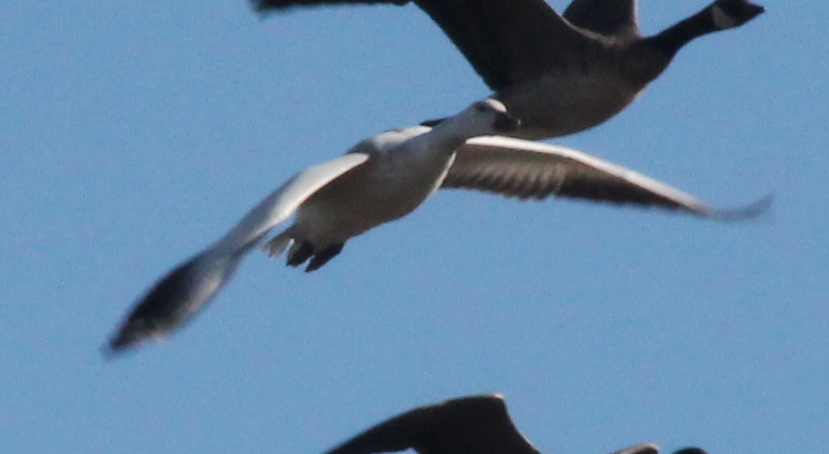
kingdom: Animalia
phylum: Chordata
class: Aves
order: Anseriformes
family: Anatidae
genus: Anser
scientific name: Anser caerulescens
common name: Snow goose
